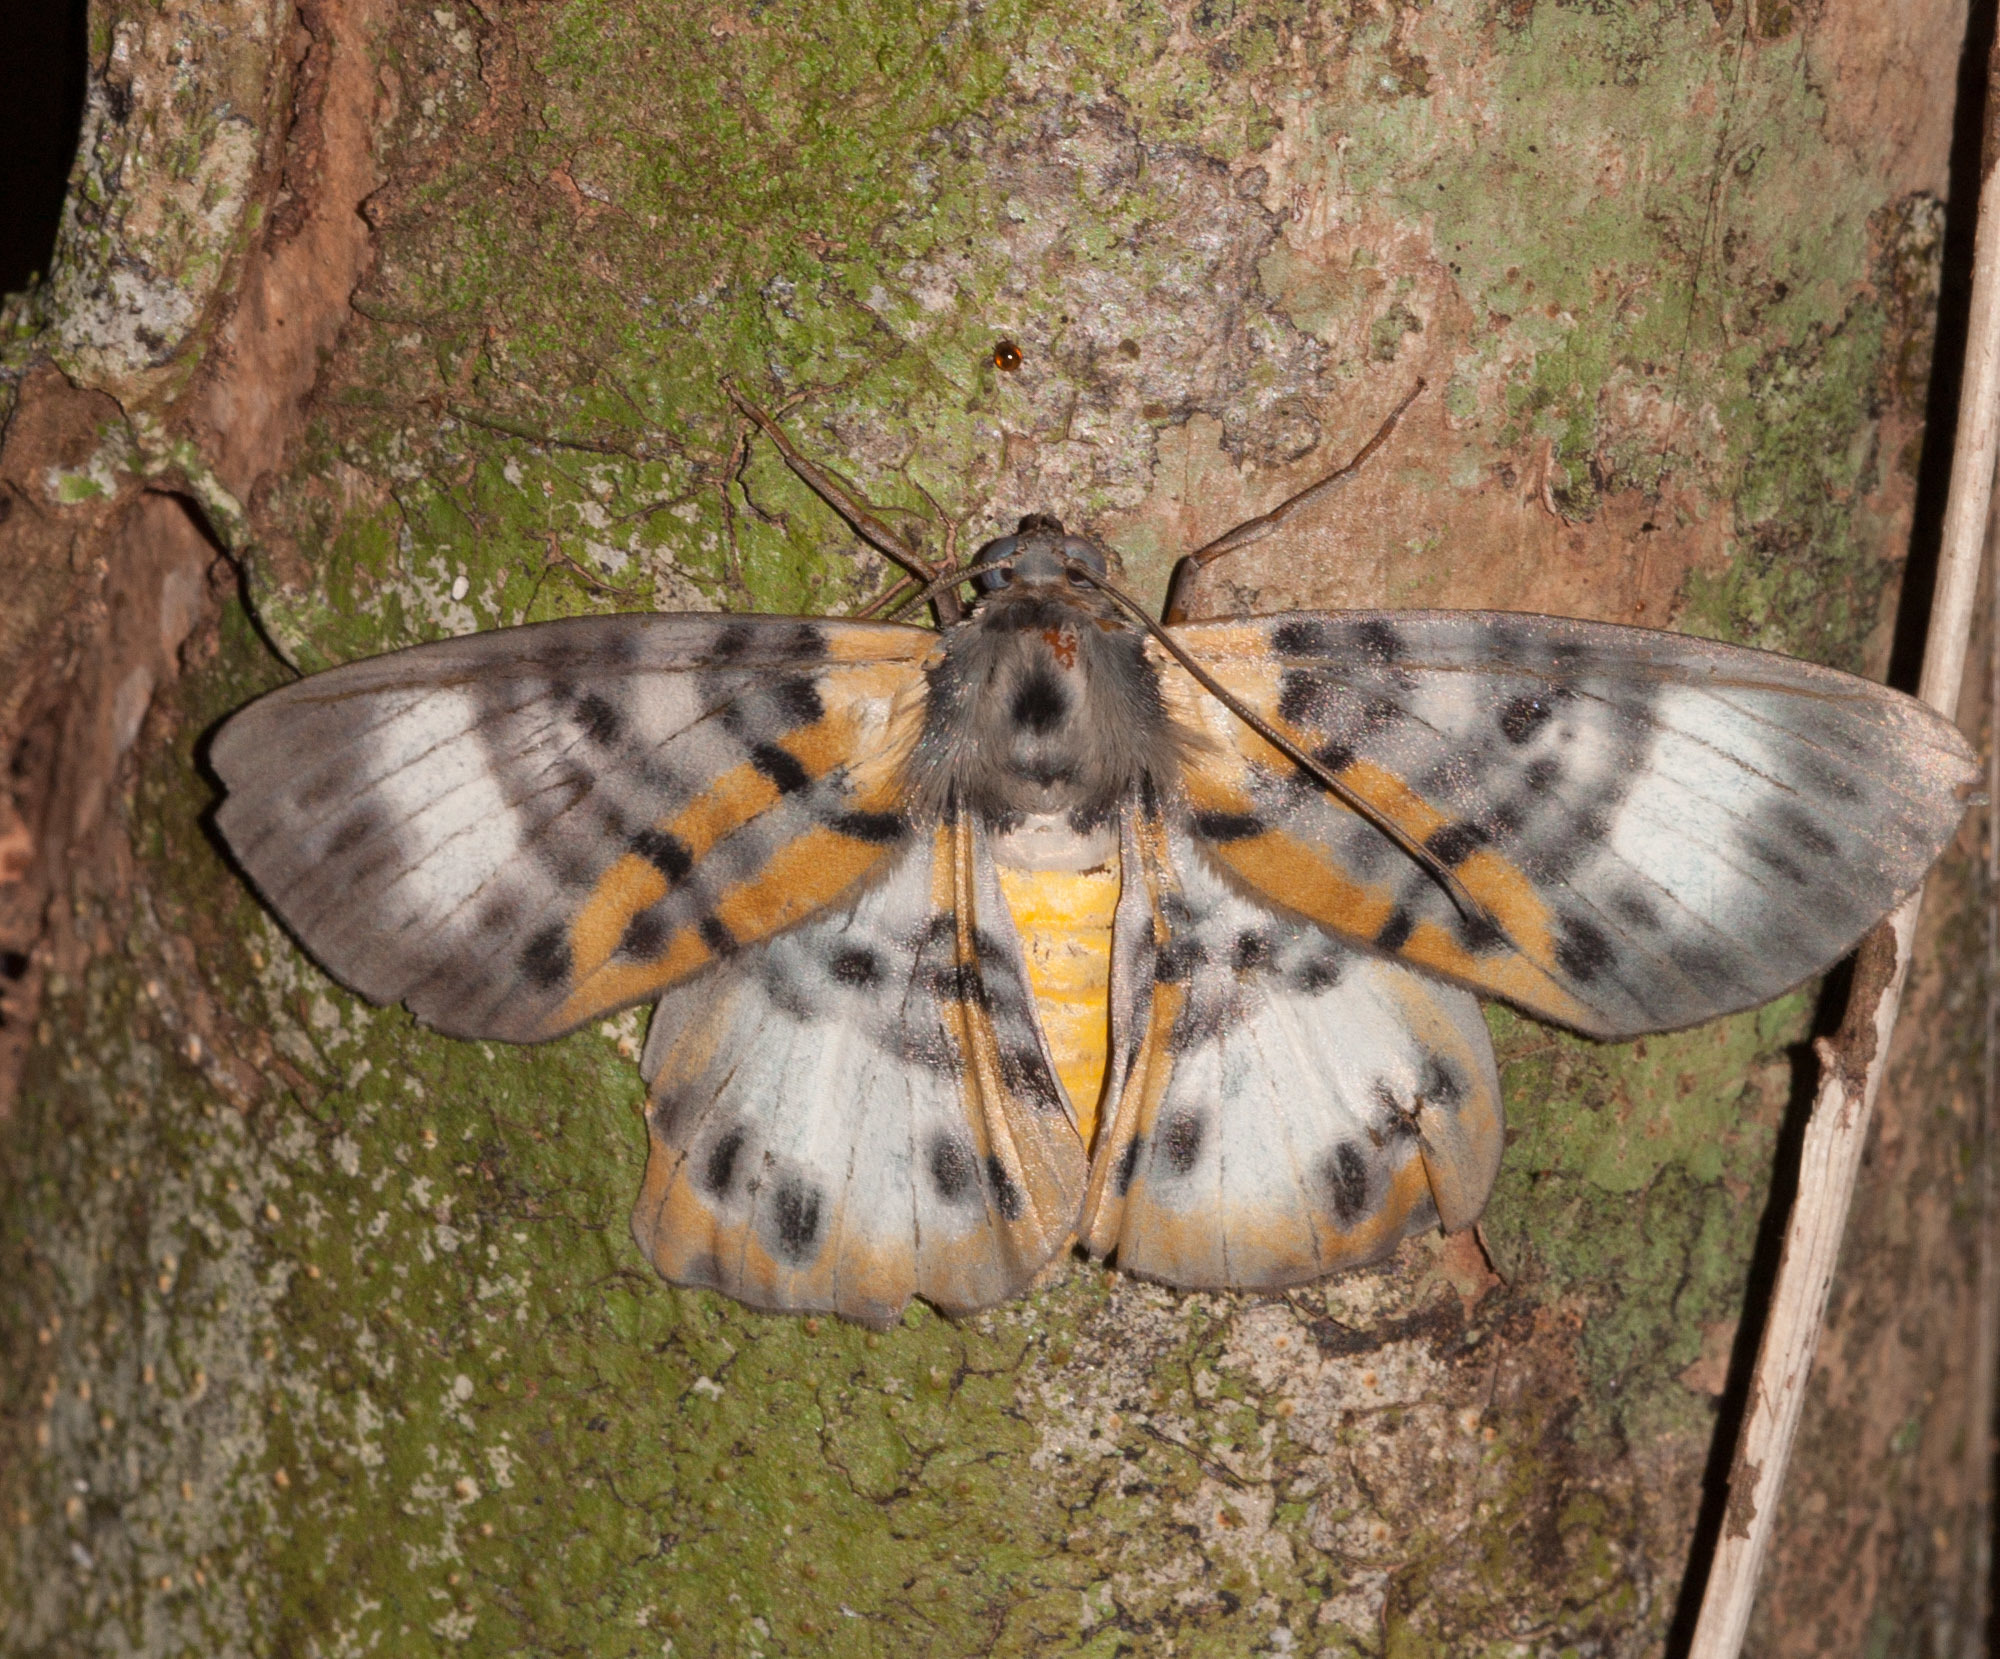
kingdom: Animalia
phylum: Arthropoda
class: Insecta
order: Lepidoptera
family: Geometridae
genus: Bracca
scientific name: Bracca rosenbergi
